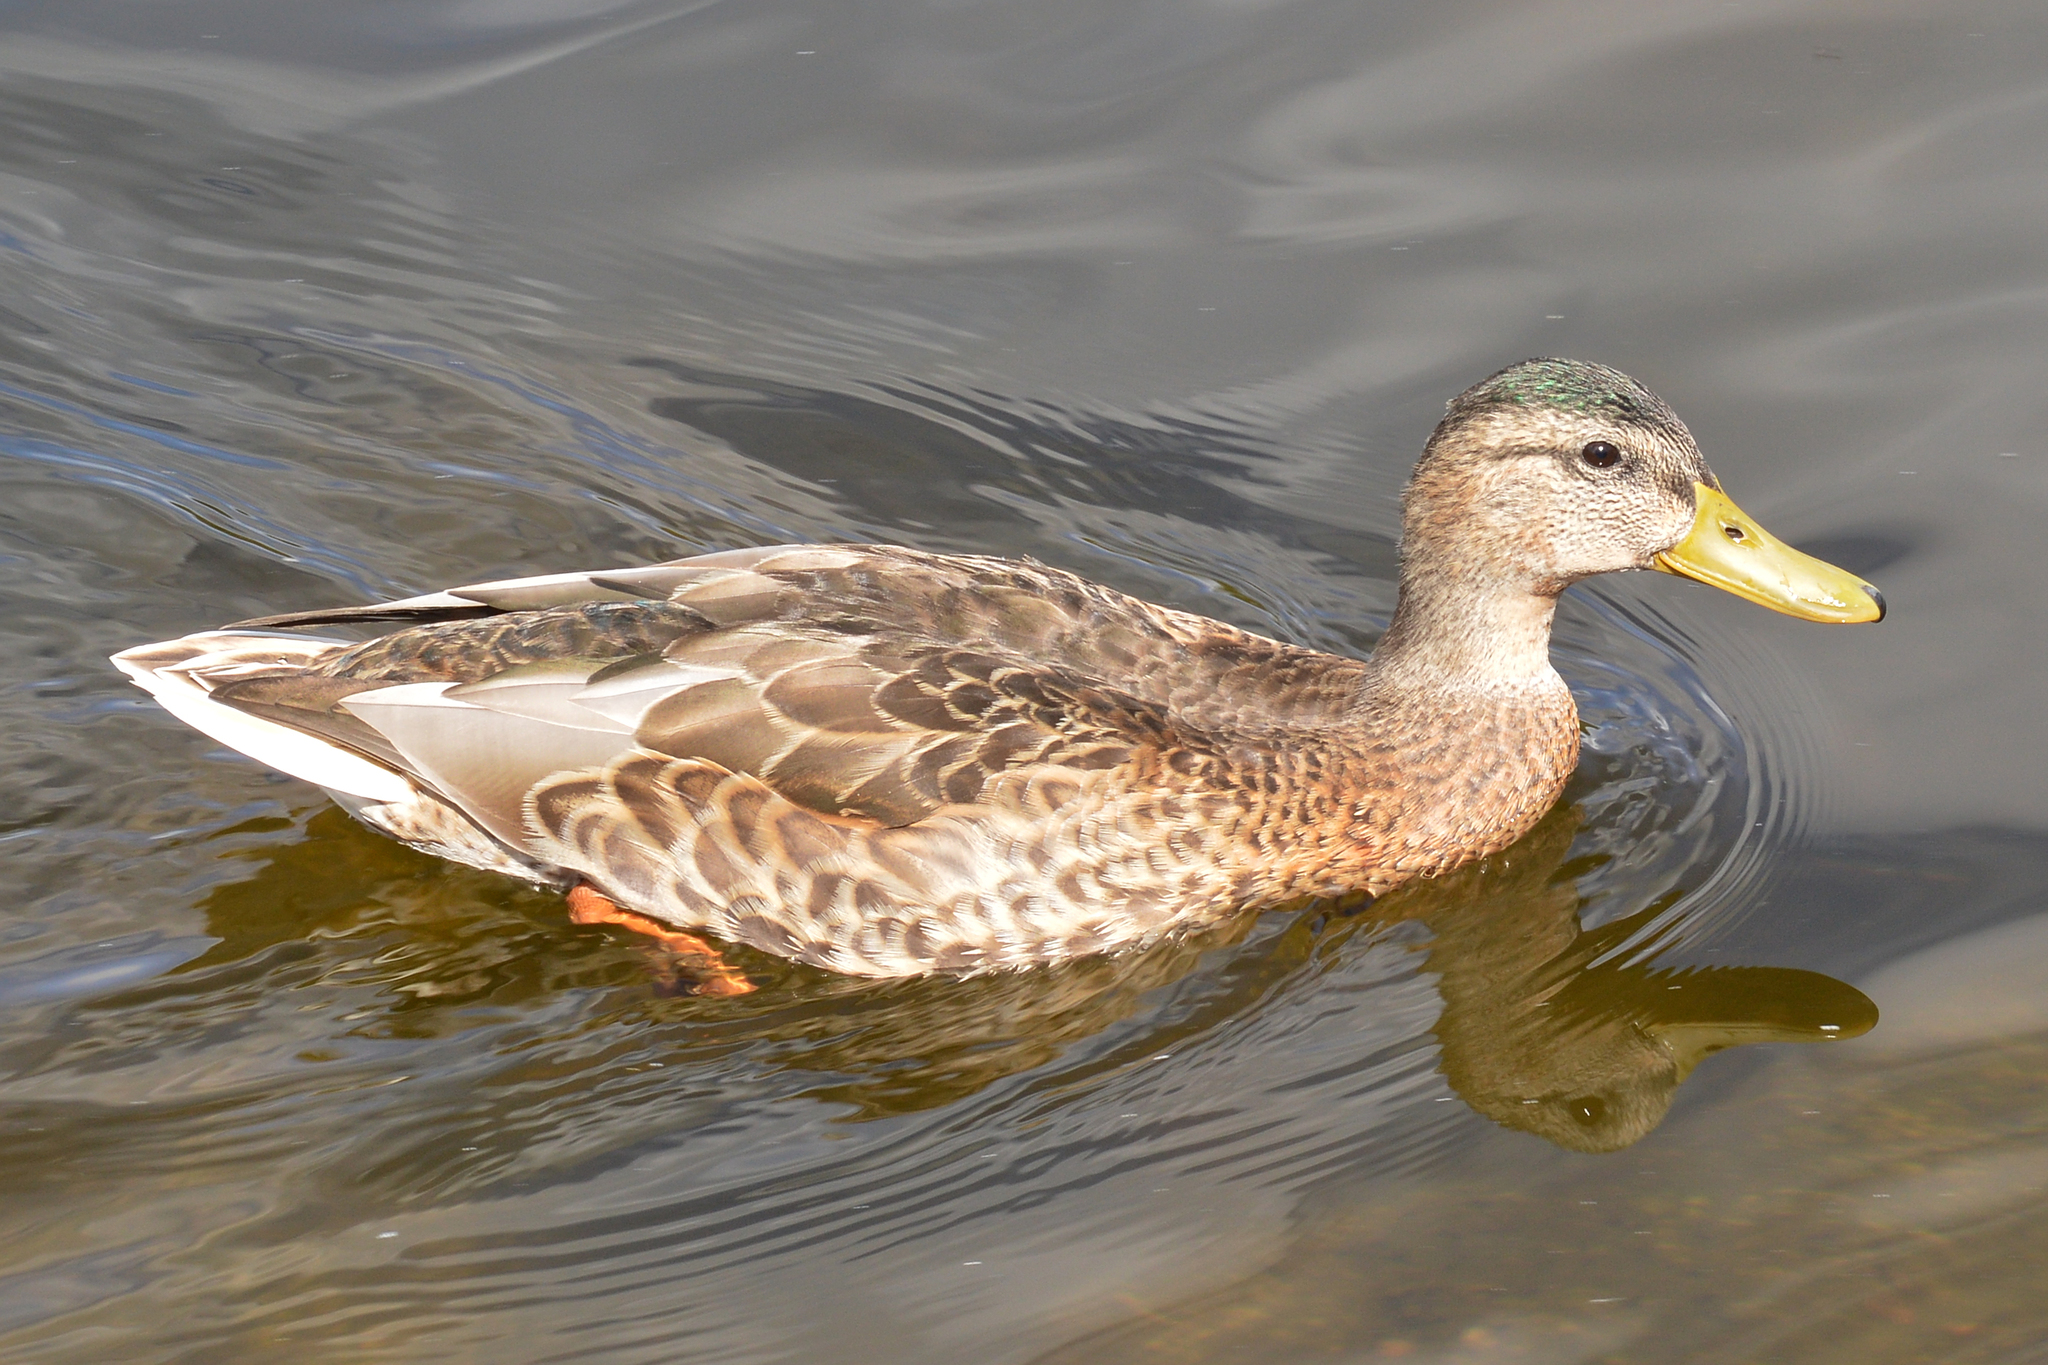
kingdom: Animalia
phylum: Chordata
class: Aves
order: Anseriformes
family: Anatidae
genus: Anas
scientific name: Anas platyrhynchos
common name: Mallard
